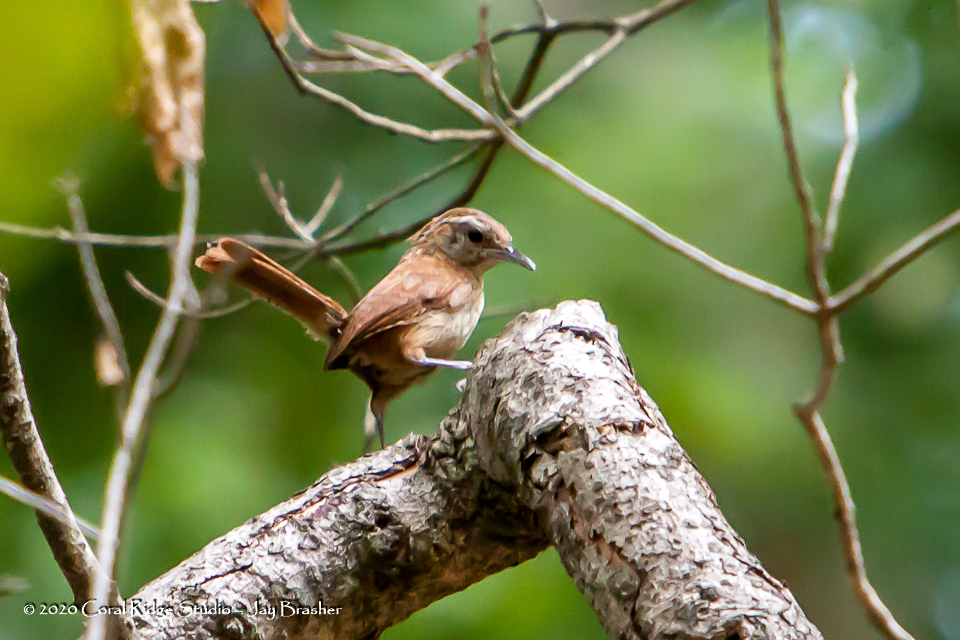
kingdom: Animalia
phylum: Chordata
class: Aves
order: Passeriformes
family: Troglodytidae
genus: Thryothorus
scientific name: Thryothorus ludovicianus
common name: Carolina wren
